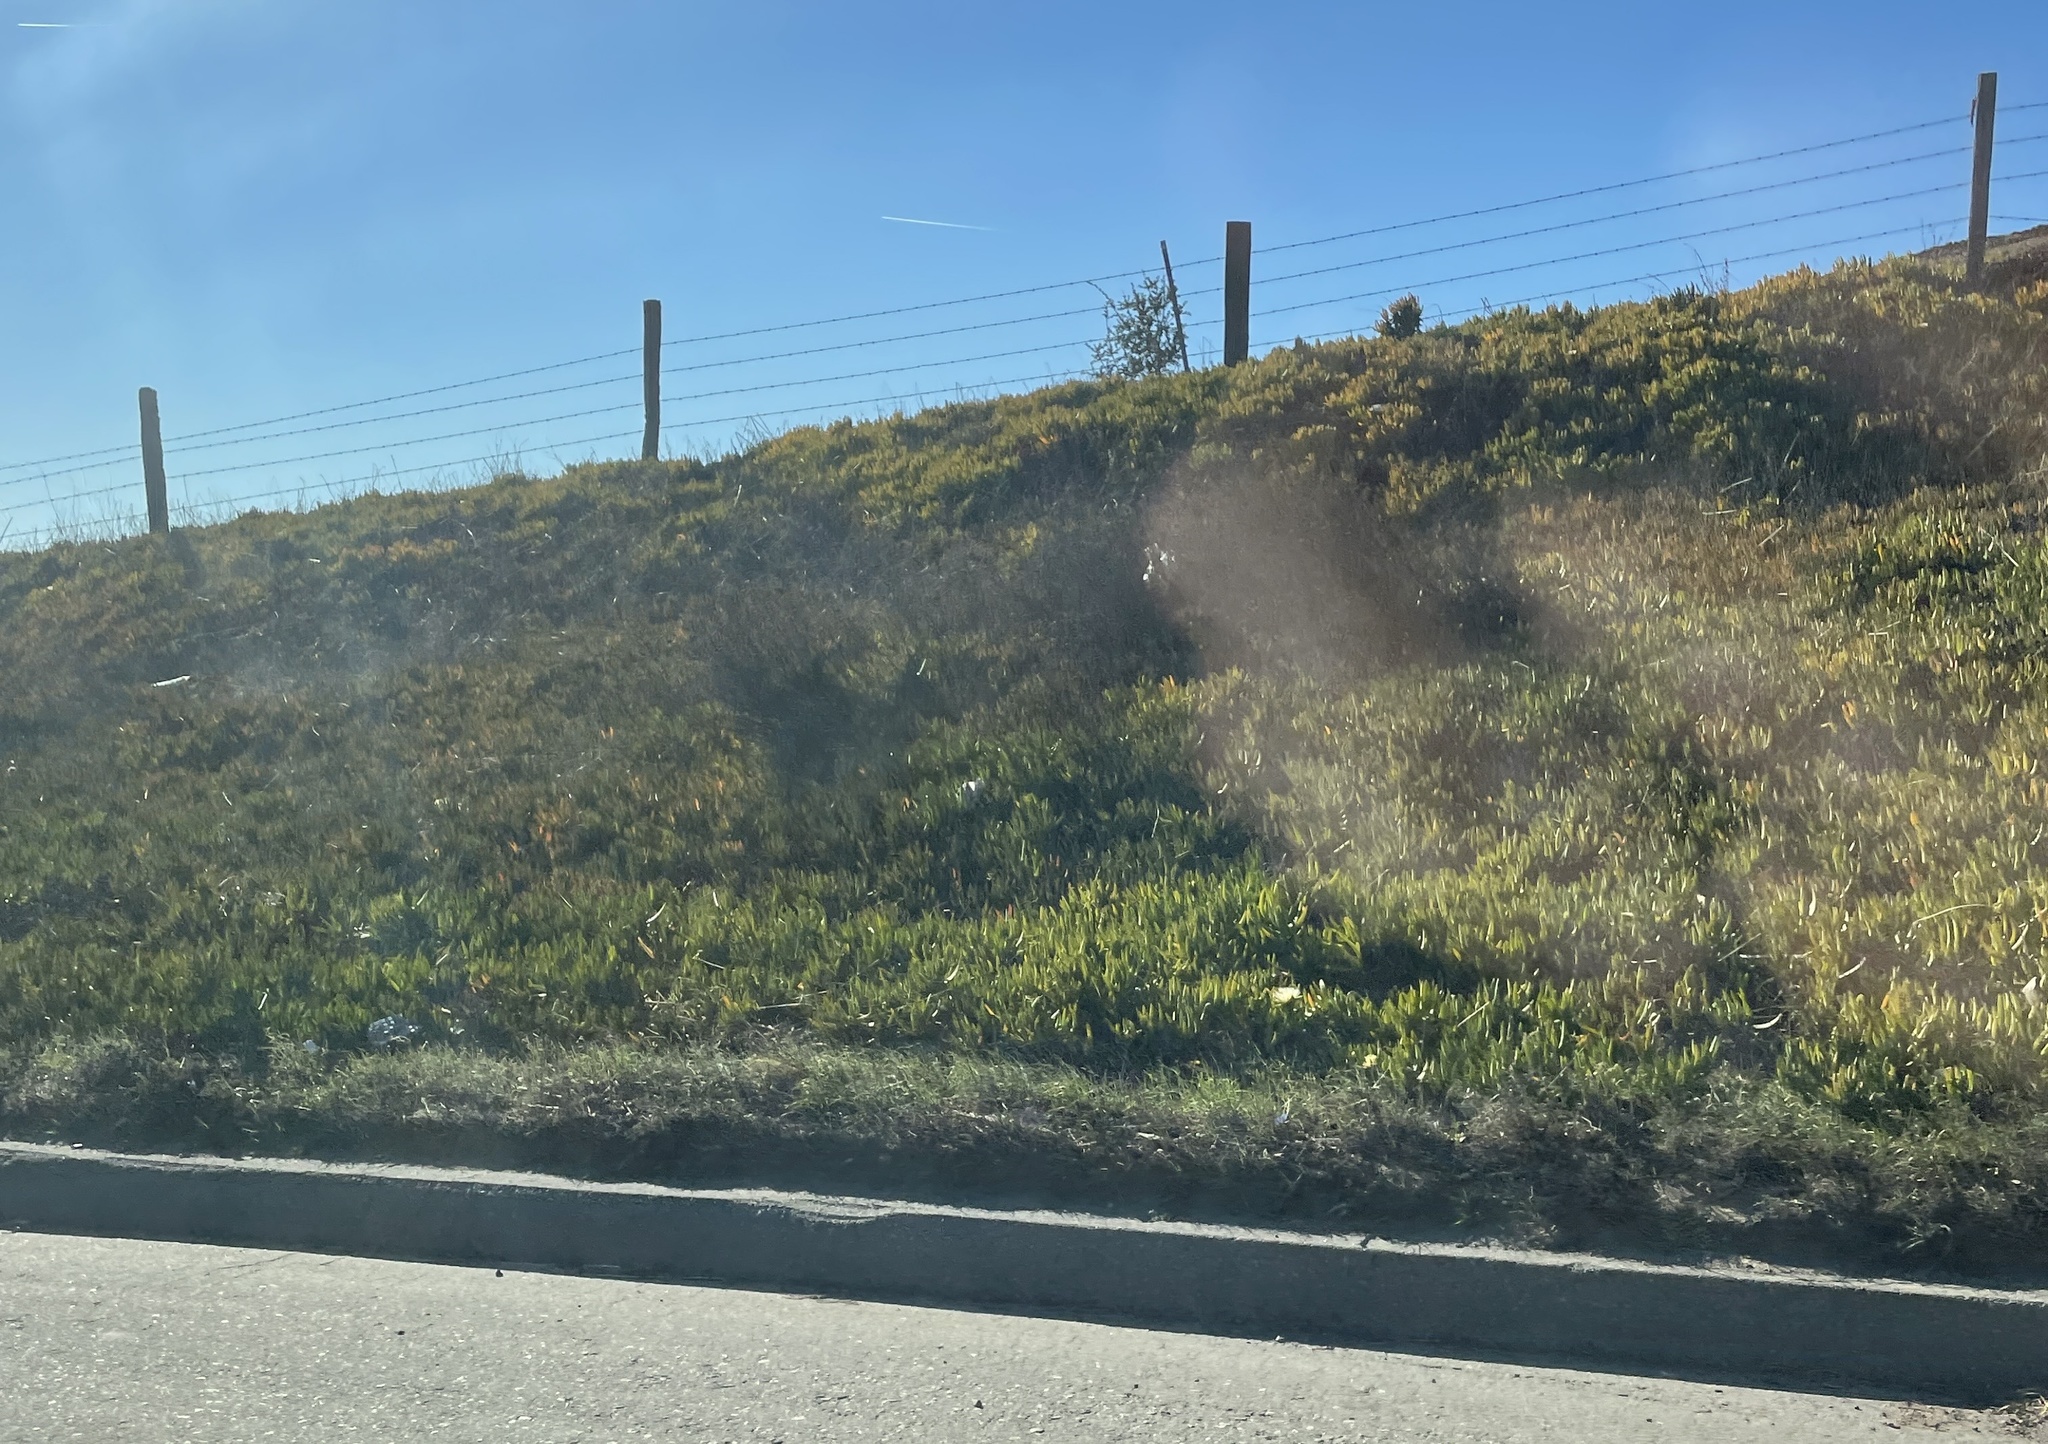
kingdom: Plantae
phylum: Tracheophyta
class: Magnoliopsida
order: Caryophyllales
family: Aizoaceae
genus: Carpobrotus
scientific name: Carpobrotus edulis
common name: Hottentot-fig
